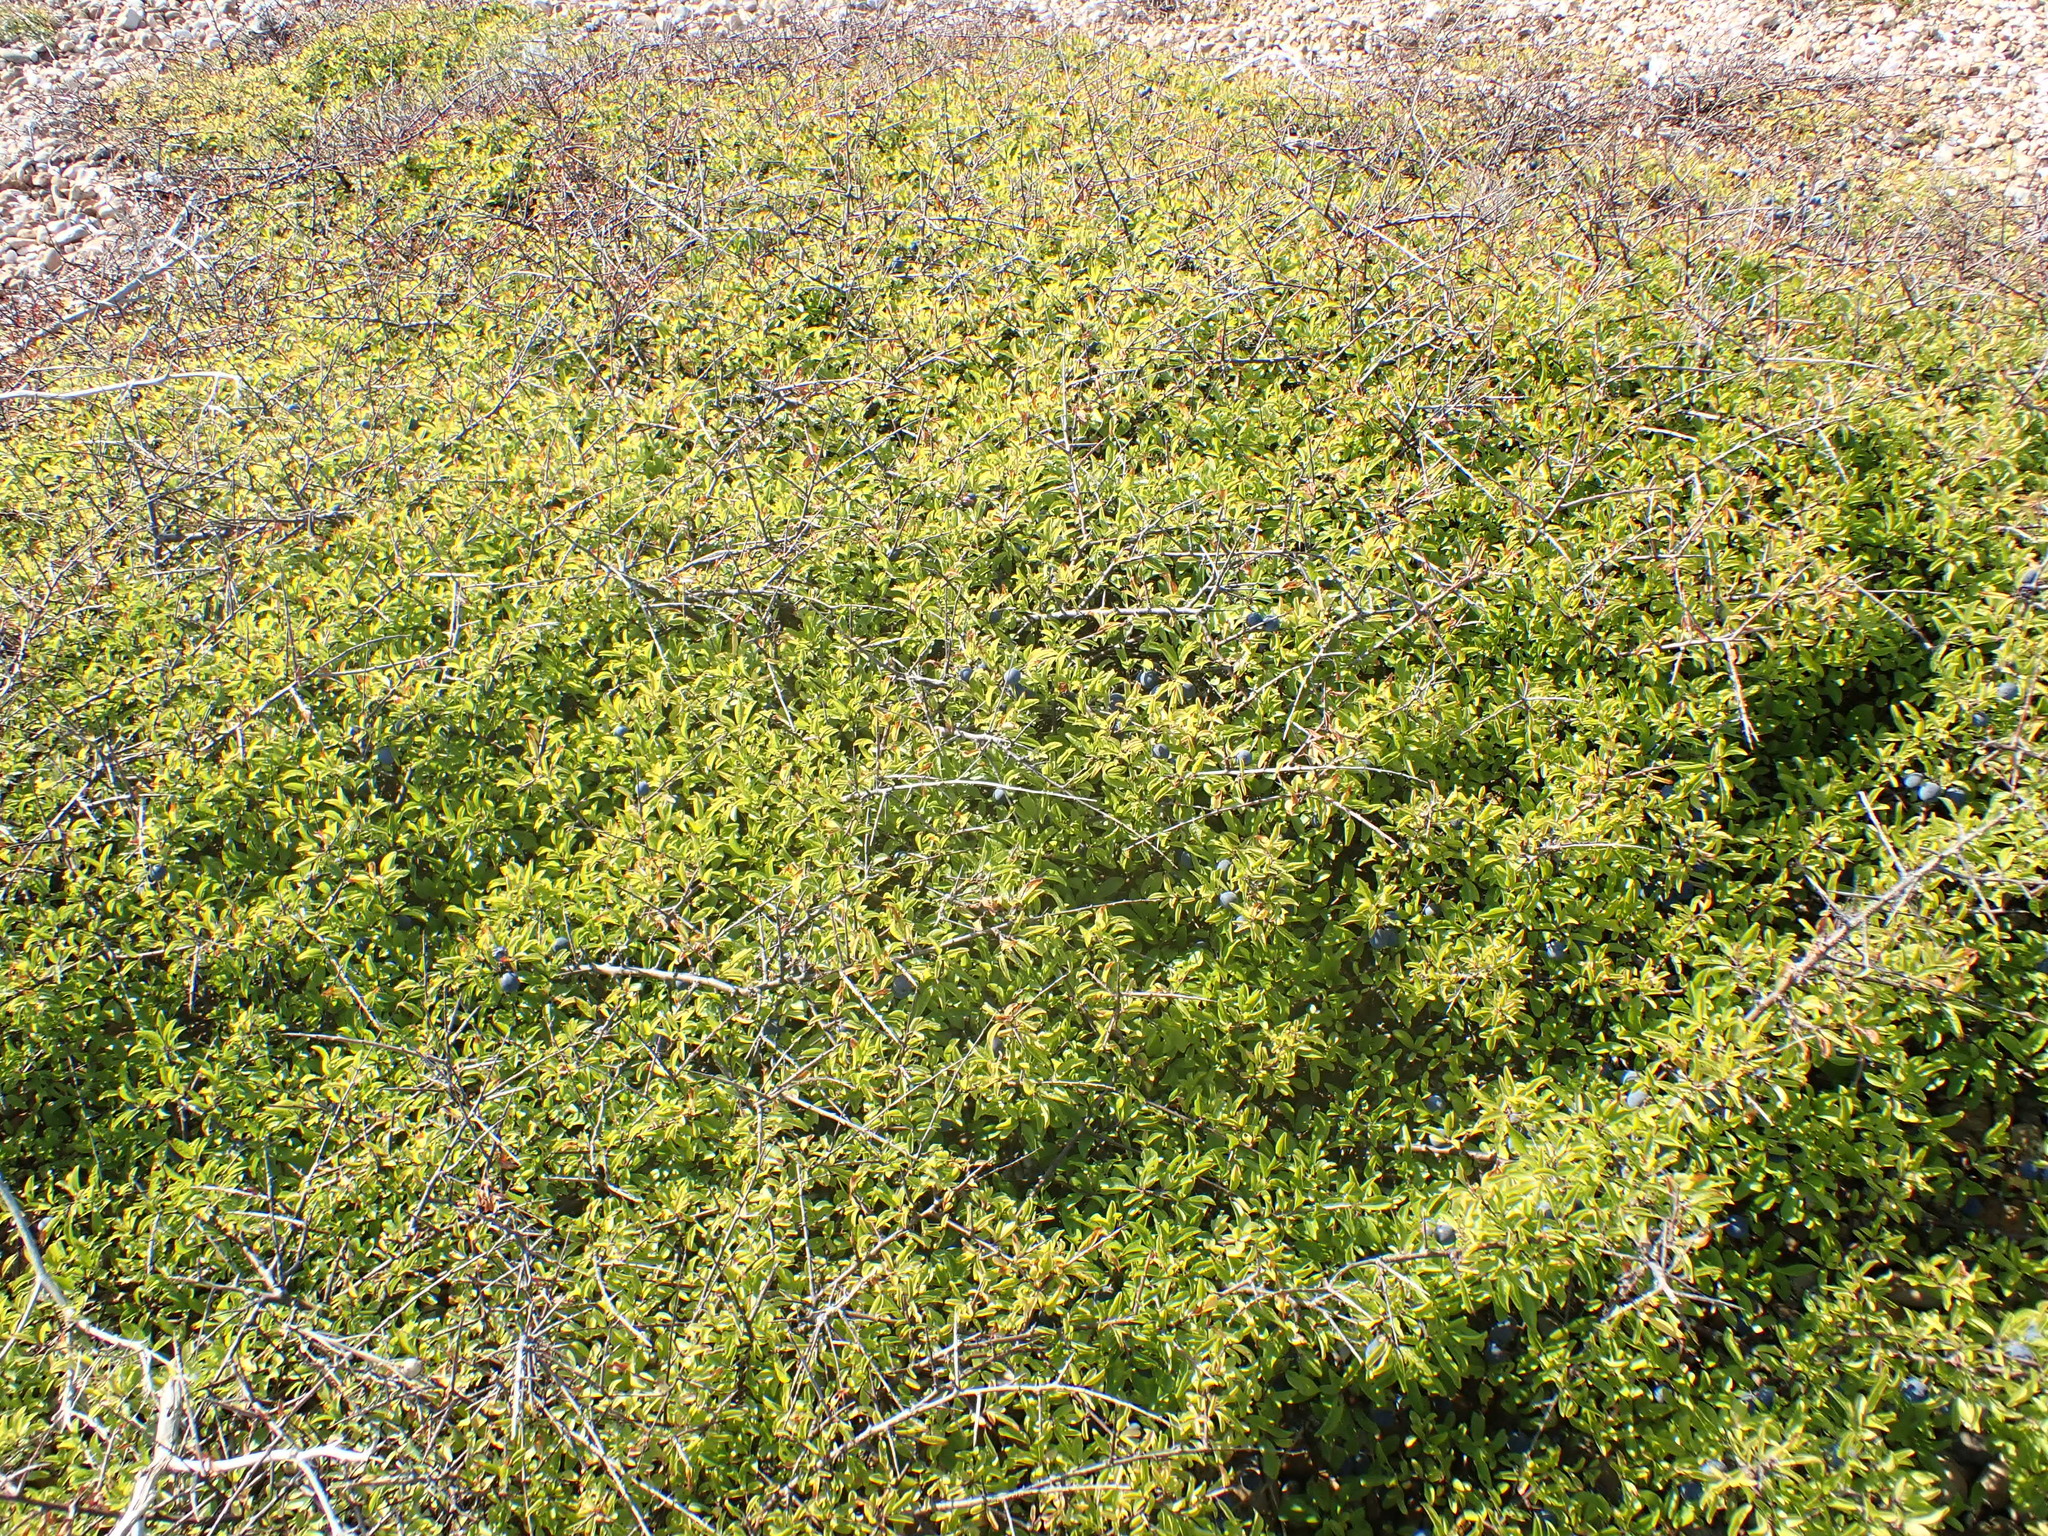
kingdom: Plantae
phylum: Tracheophyta
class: Magnoliopsida
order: Rosales
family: Rosaceae
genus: Prunus
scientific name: Prunus spinosa
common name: Blackthorn
